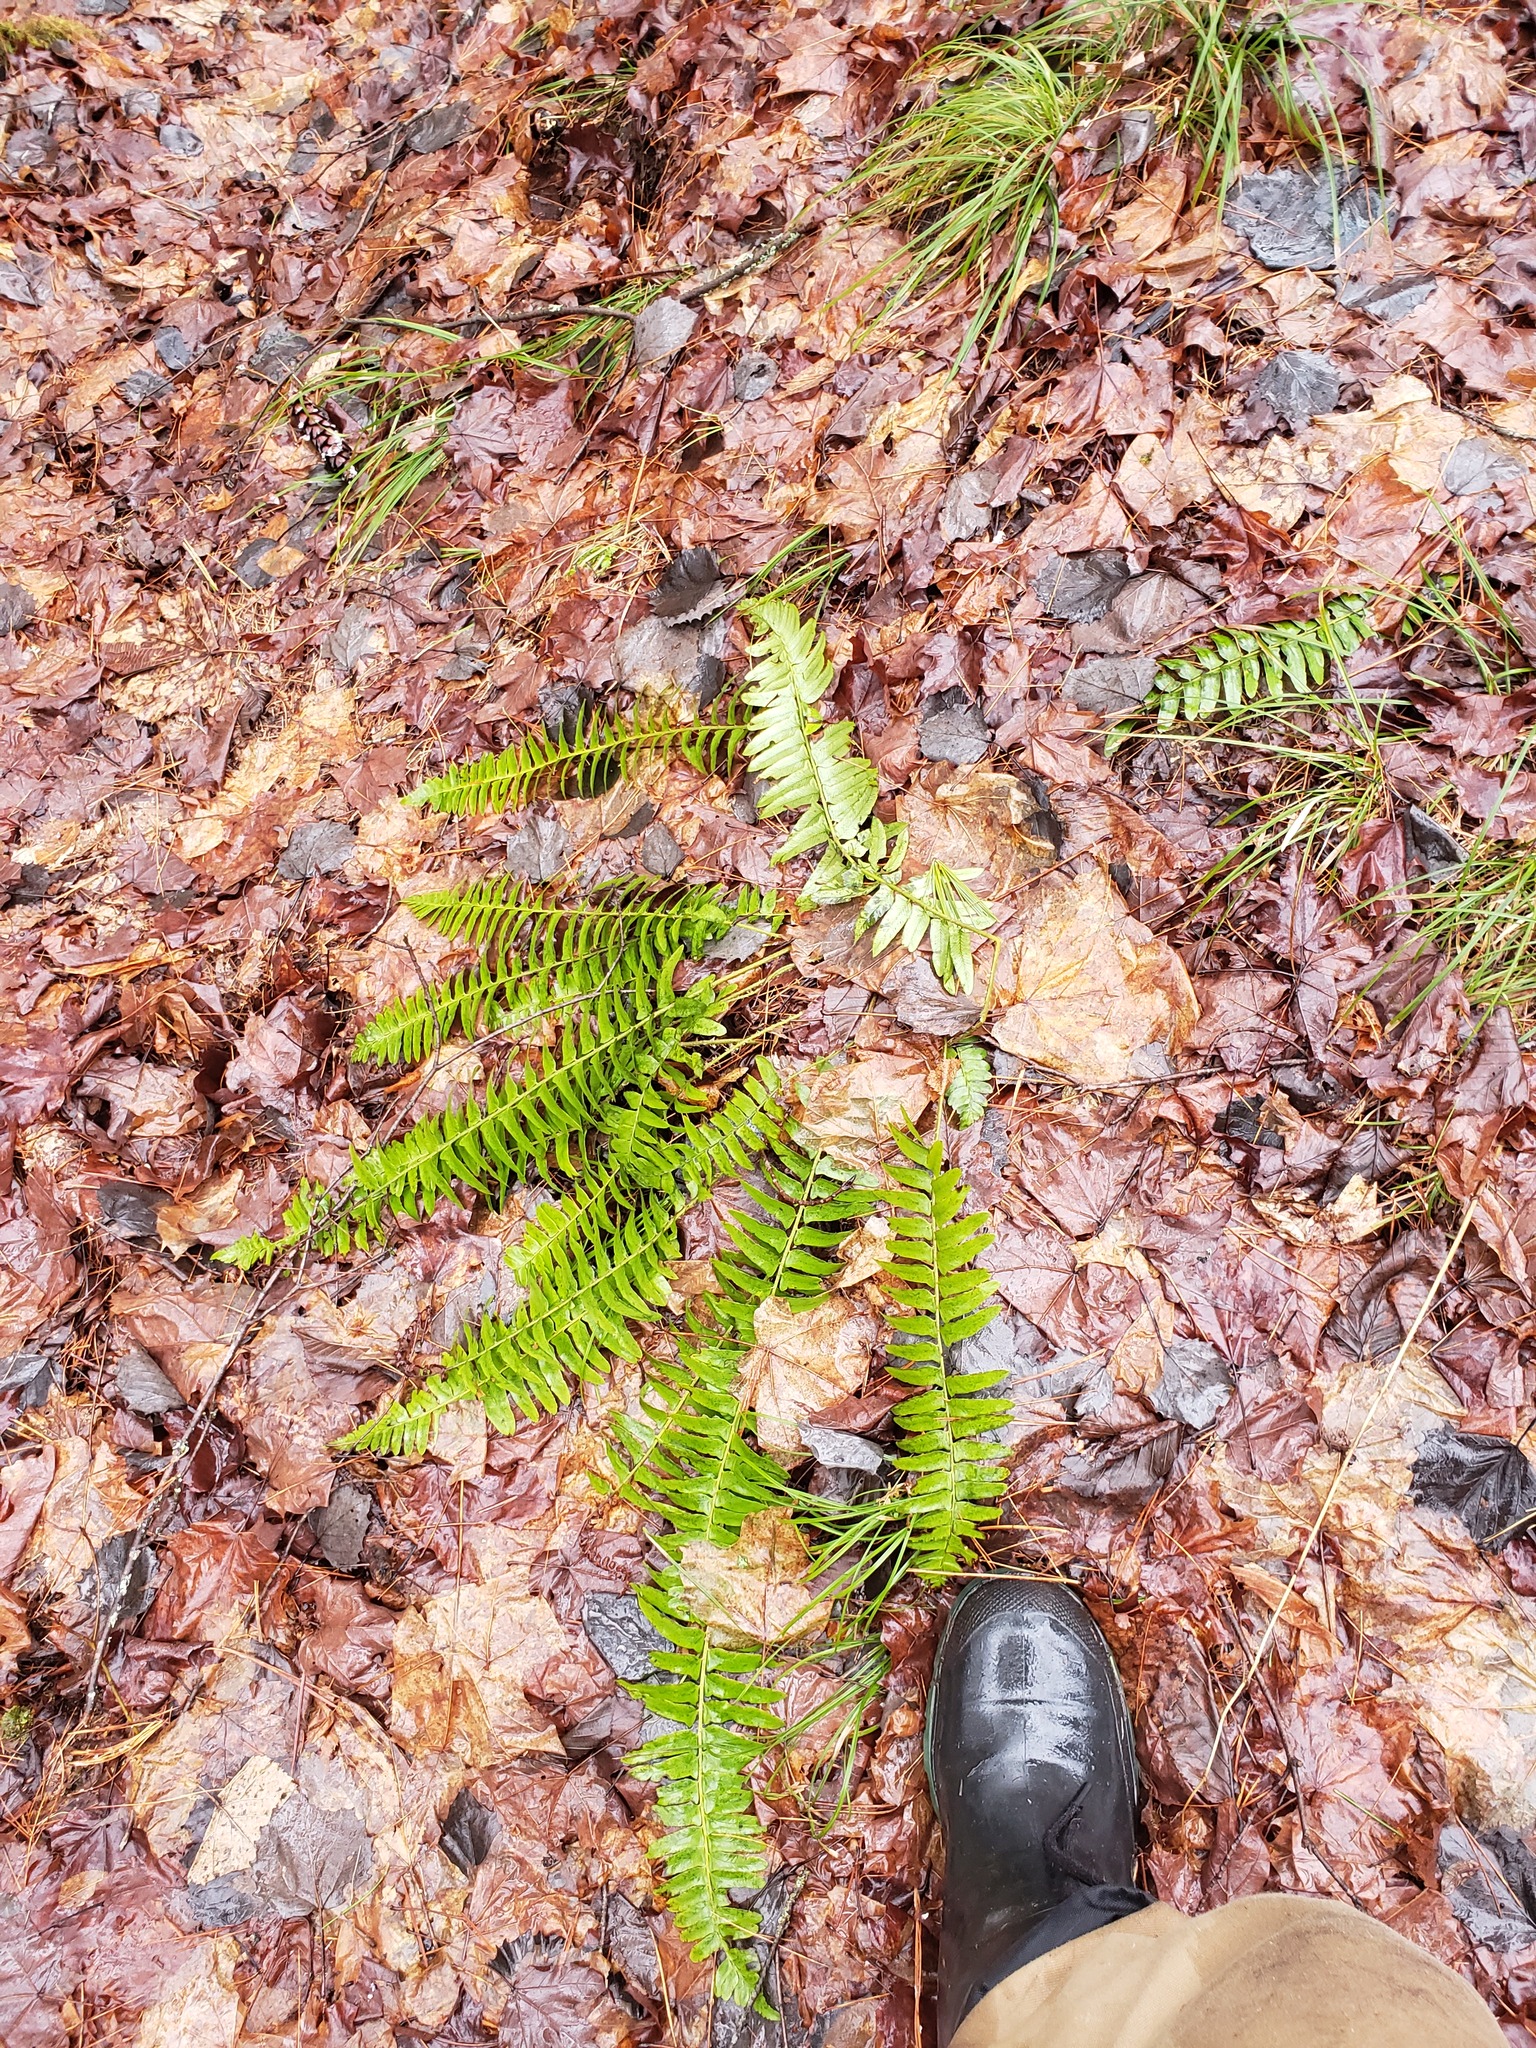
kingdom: Plantae
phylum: Tracheophyta
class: Polypodiopsida
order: Polypodiales
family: Dryopteridaceae
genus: Polystichum
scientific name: Polystichum acrostichoides
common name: Christmas fern
